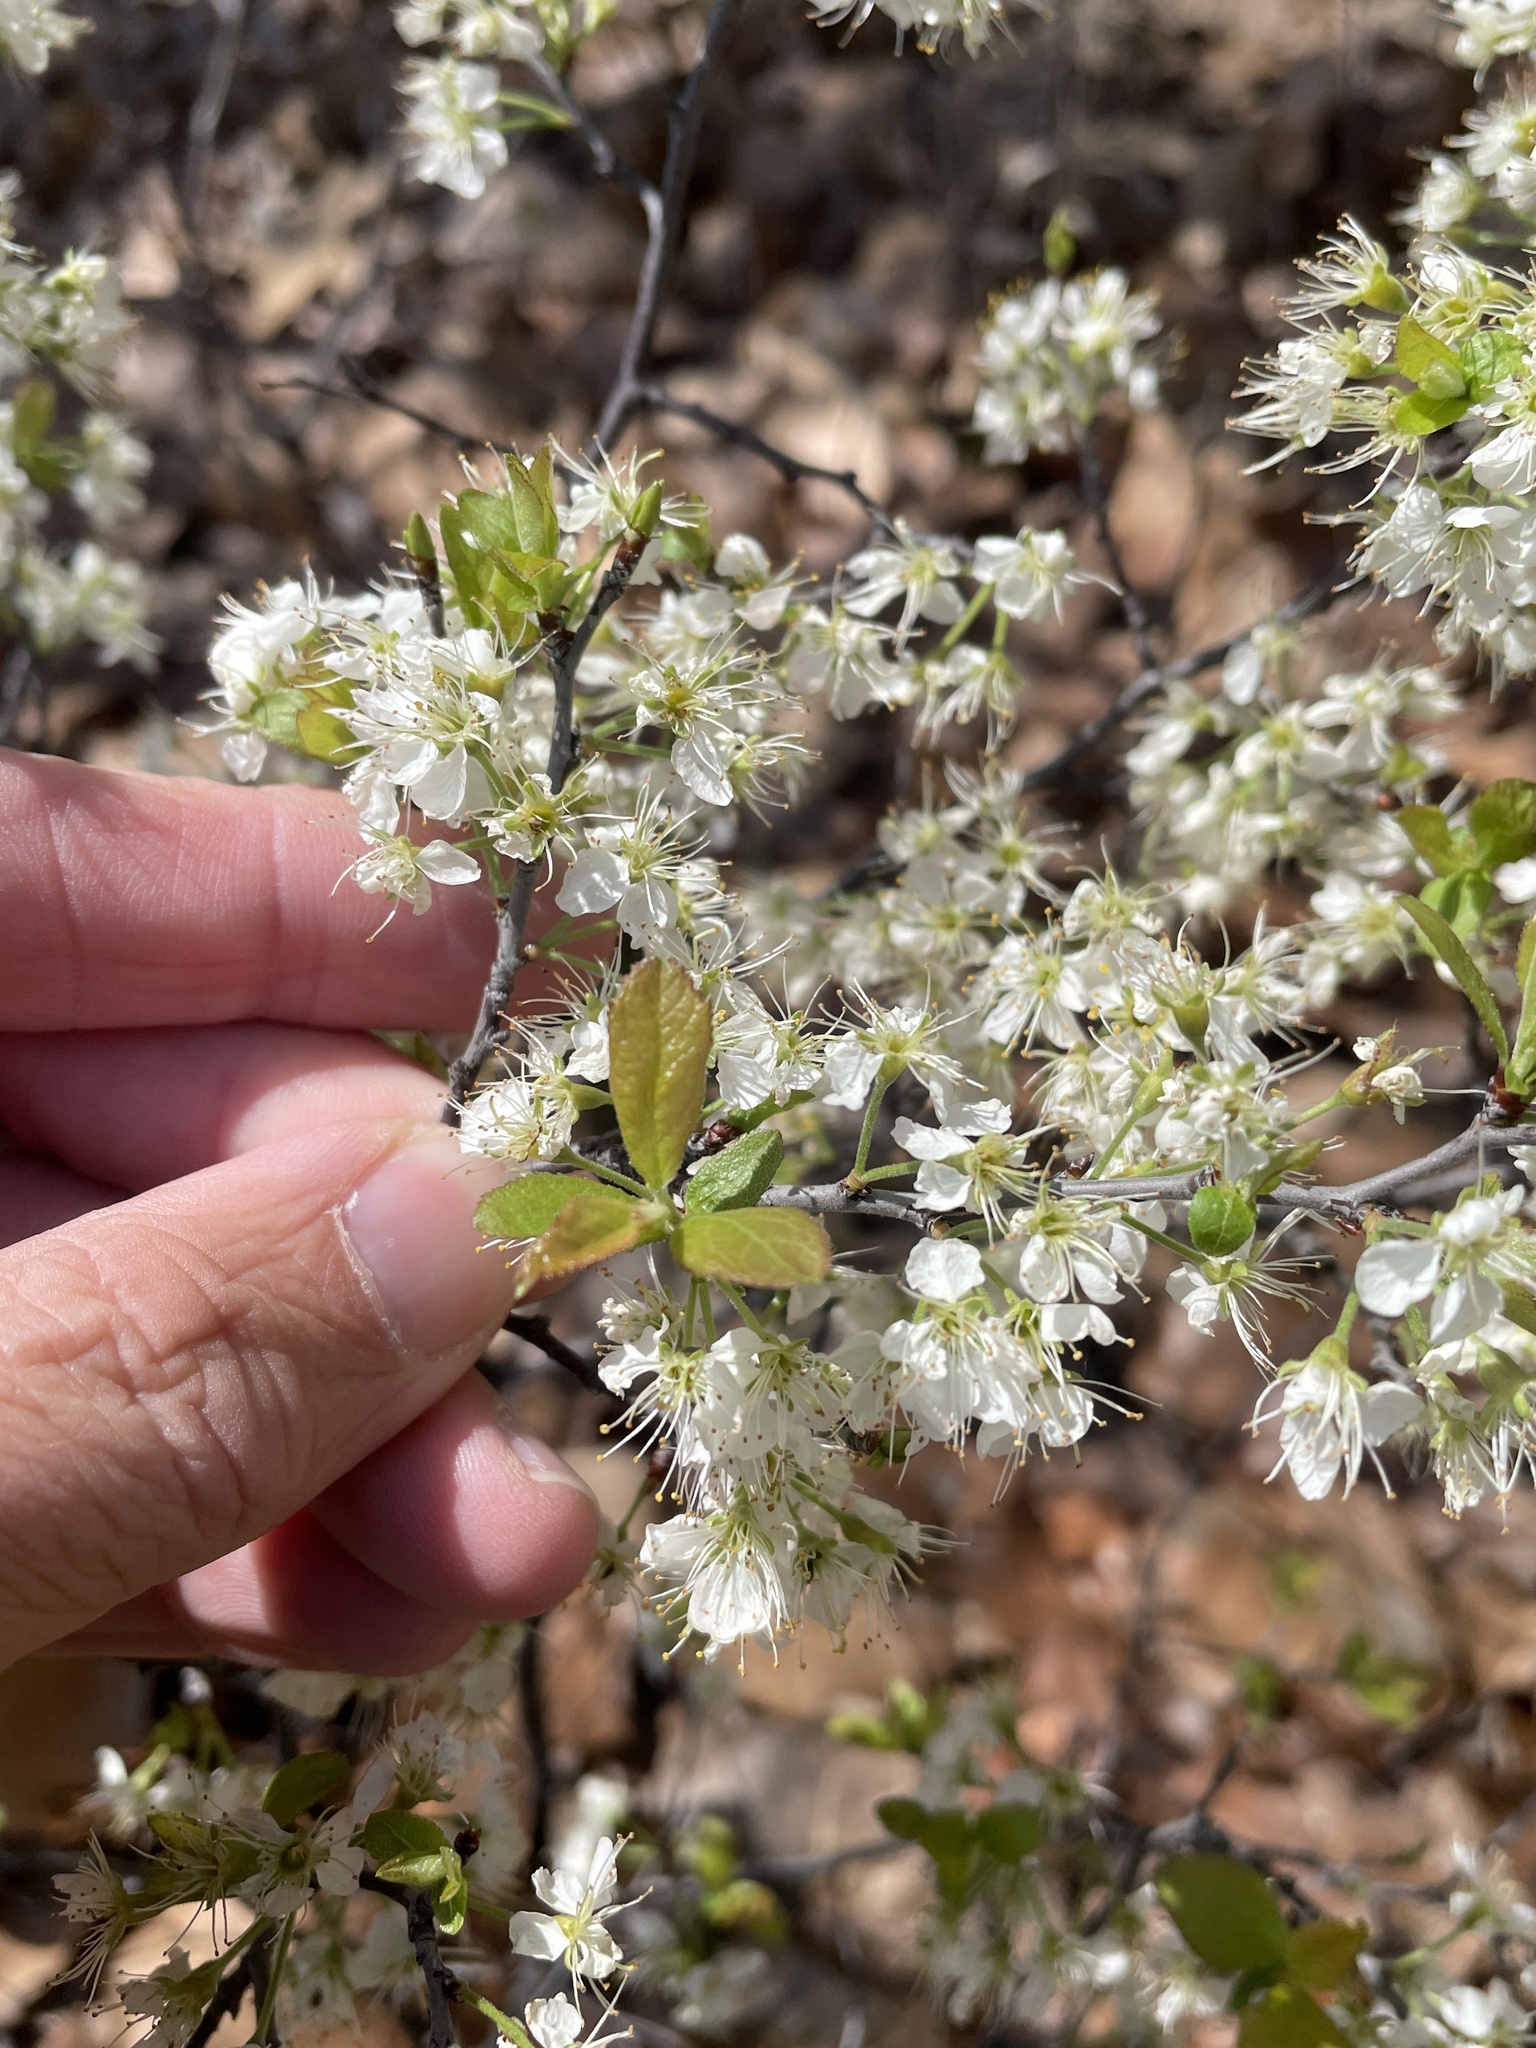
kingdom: Plantae
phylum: Tracheophyta
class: Magnoliopsida
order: Rosales
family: Rosaceae
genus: Prunus
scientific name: Prunus angustifolia
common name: Cherokee plum
